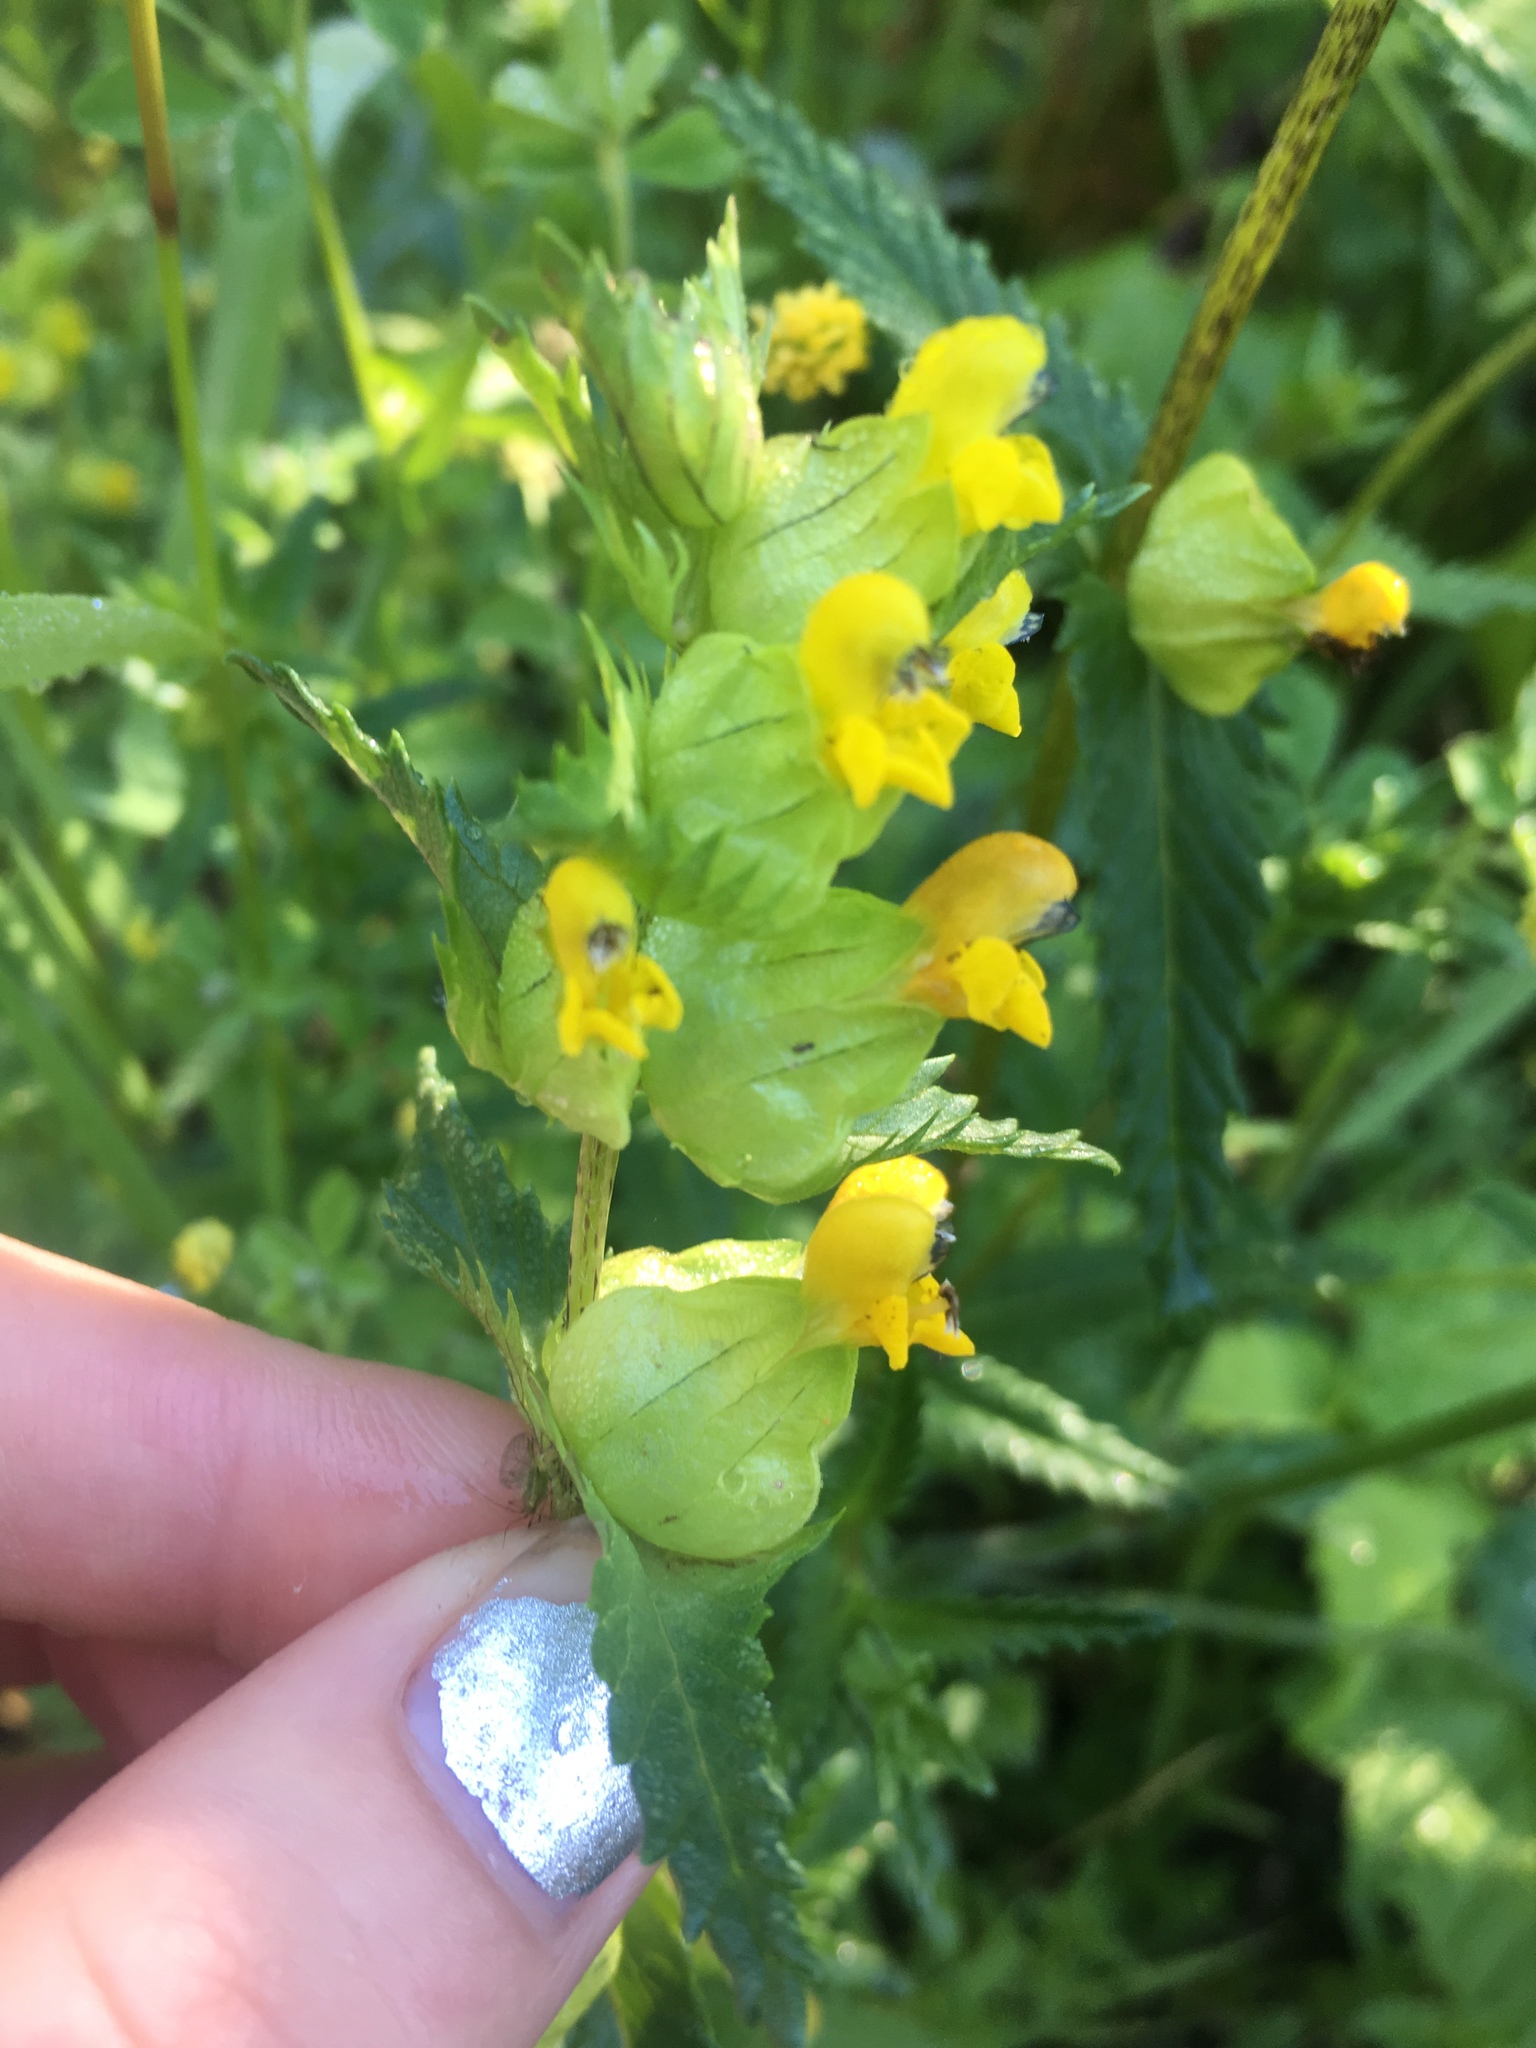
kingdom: Plantae
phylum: Tracheophyta
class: Magnoliopsida
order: Lamiales
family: Orobanchaceae
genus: Rhinanthus
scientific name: Rhinanthus minor
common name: Yellow-rattle
